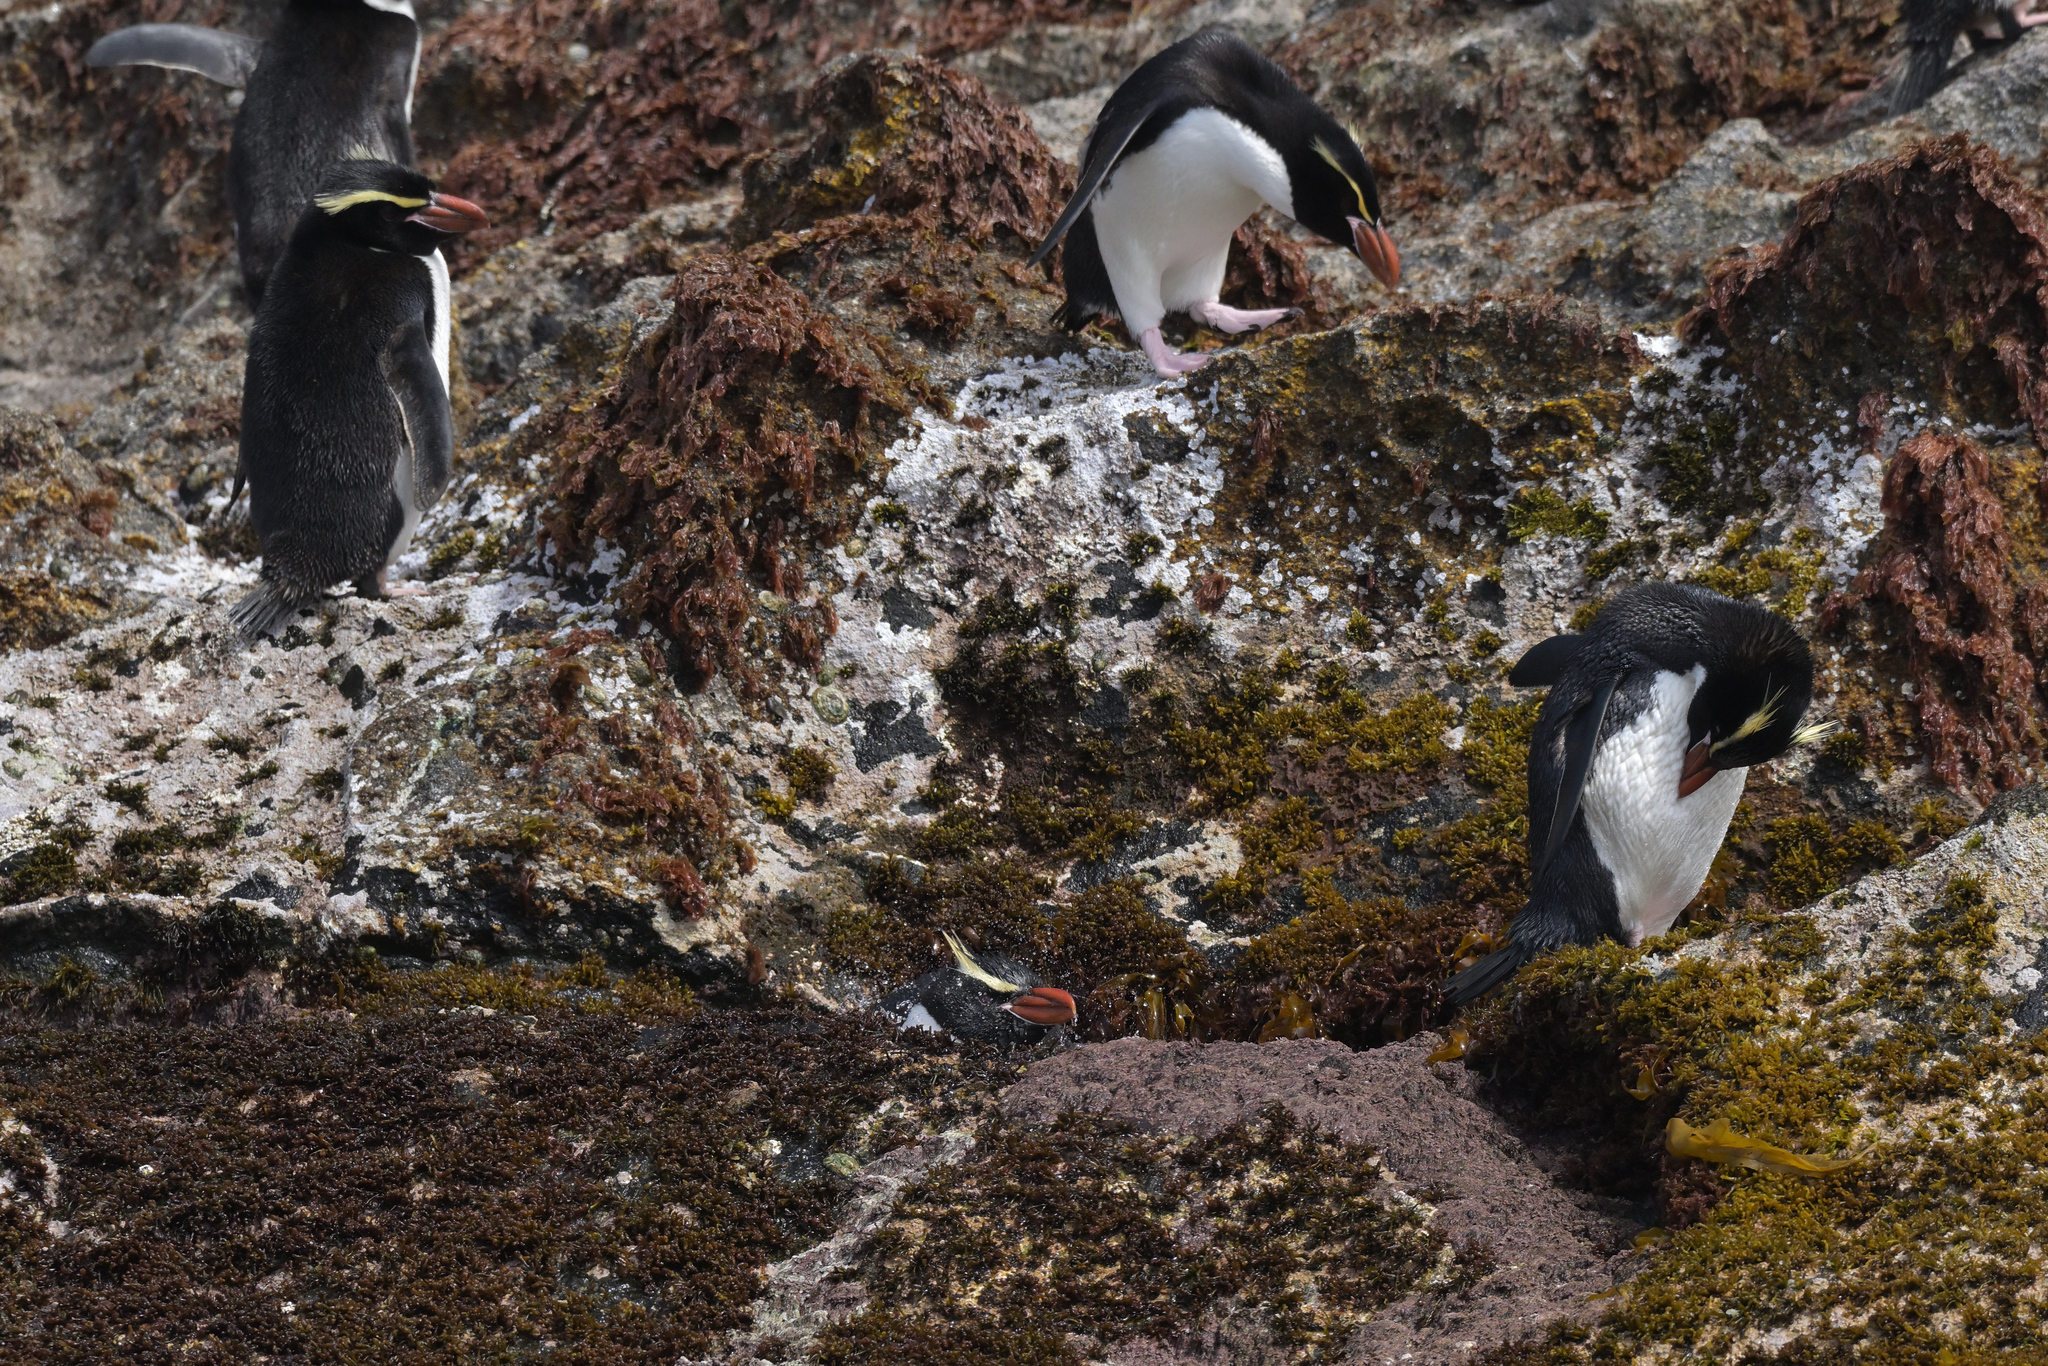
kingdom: Animalia
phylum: Chordata
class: Aves
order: Sphenisciformes
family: Spheniscidae
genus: Eudyptes
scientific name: Eudyptes robustus
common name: Snares penguin
